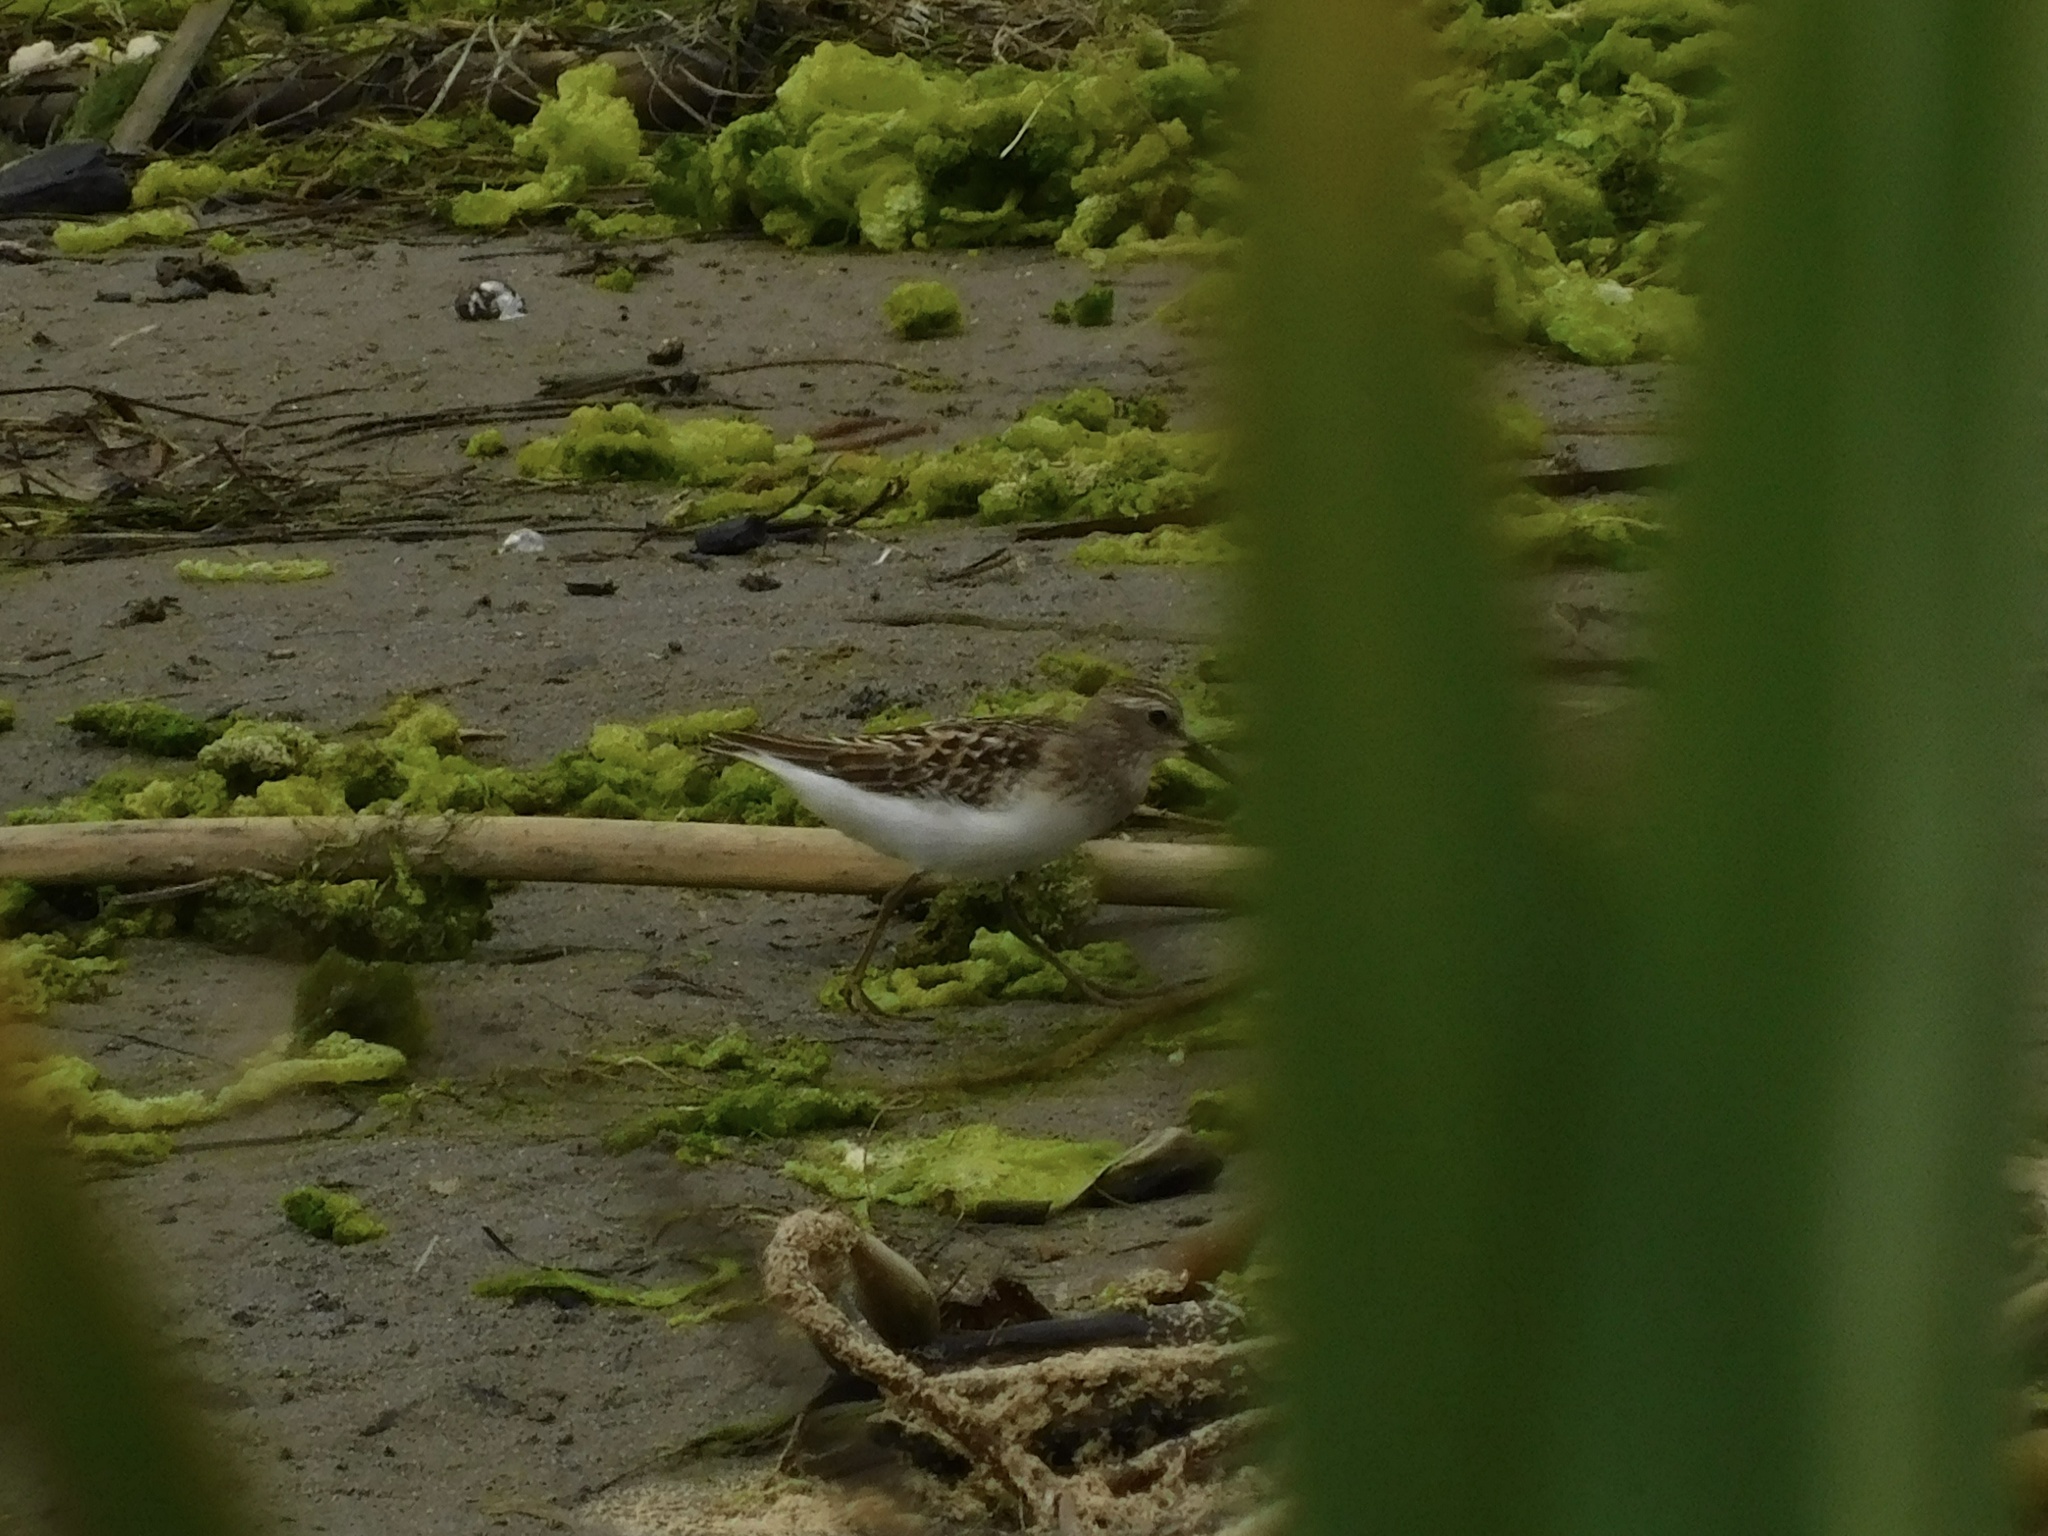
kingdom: Animalia
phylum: Chordata
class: Aves
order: Charadriiformes
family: Scolopacidae
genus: Calidris
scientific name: Calidris minutilla
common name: Least sandpiper
